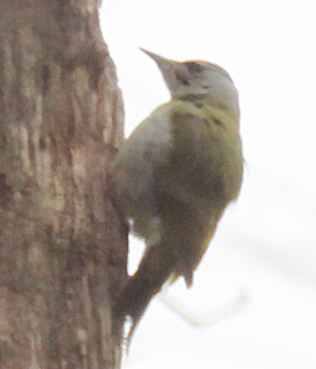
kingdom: Animalia
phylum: Chordata
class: Aves
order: Piciformes
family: Picidae
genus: Picus
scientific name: Picus canus
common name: Grey-headed woodpecker
